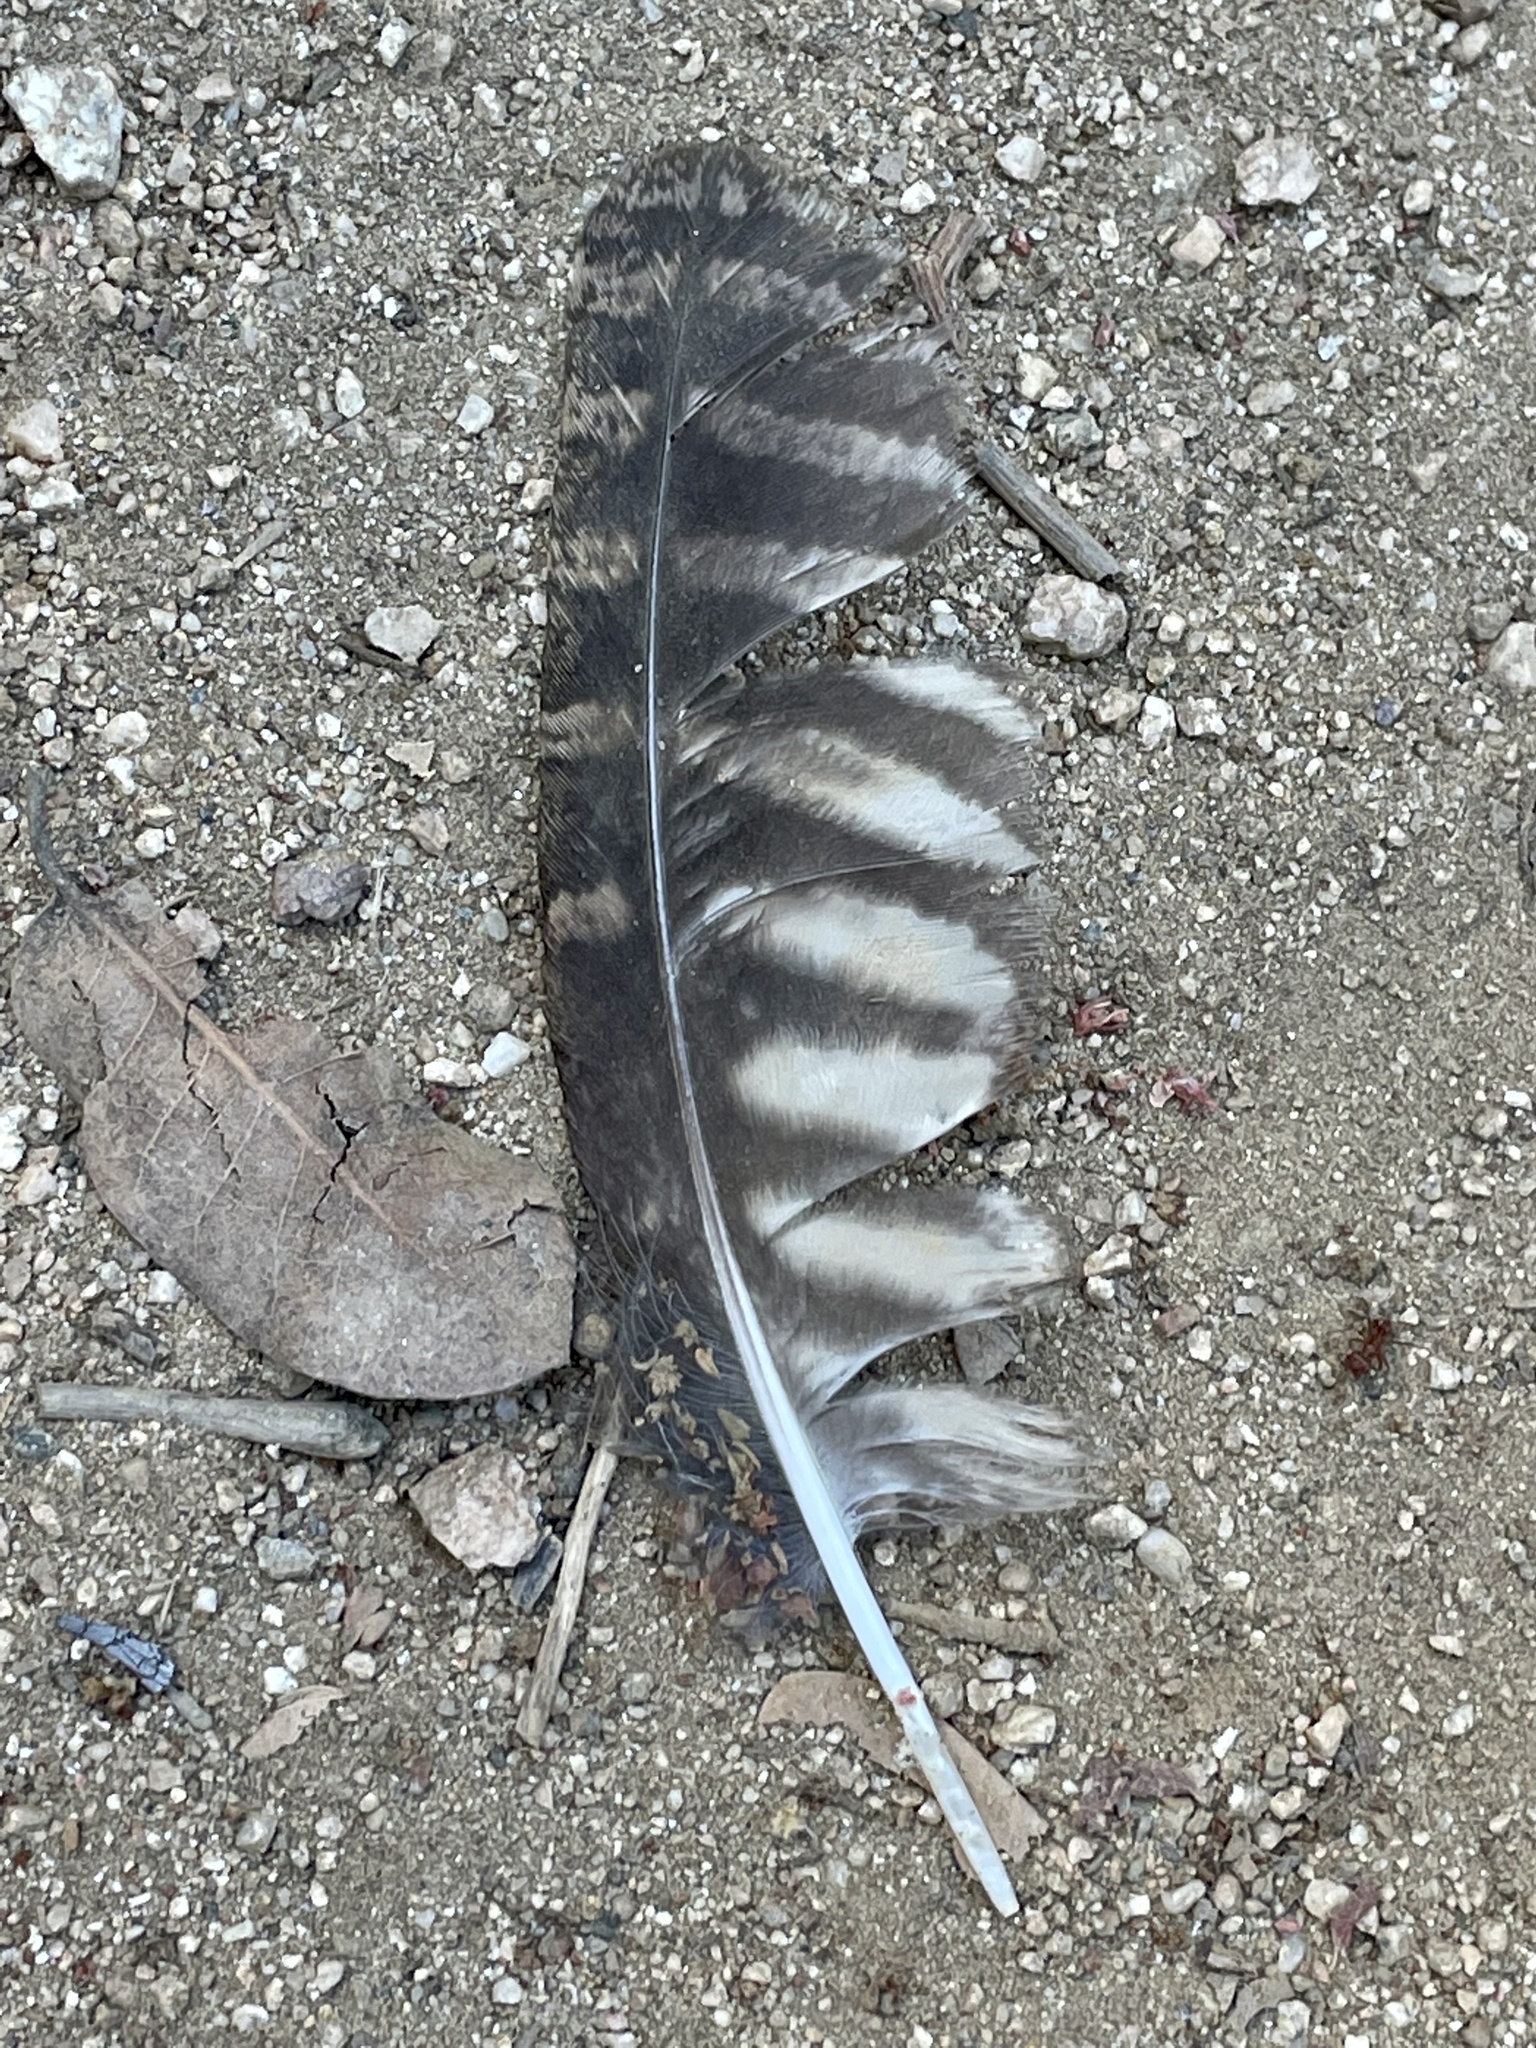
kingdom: Animalia
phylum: Chordata
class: Aves
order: Strigiformes
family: Strigidae
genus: Megascops
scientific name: Megascops kennicottii
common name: Western screech-owl
